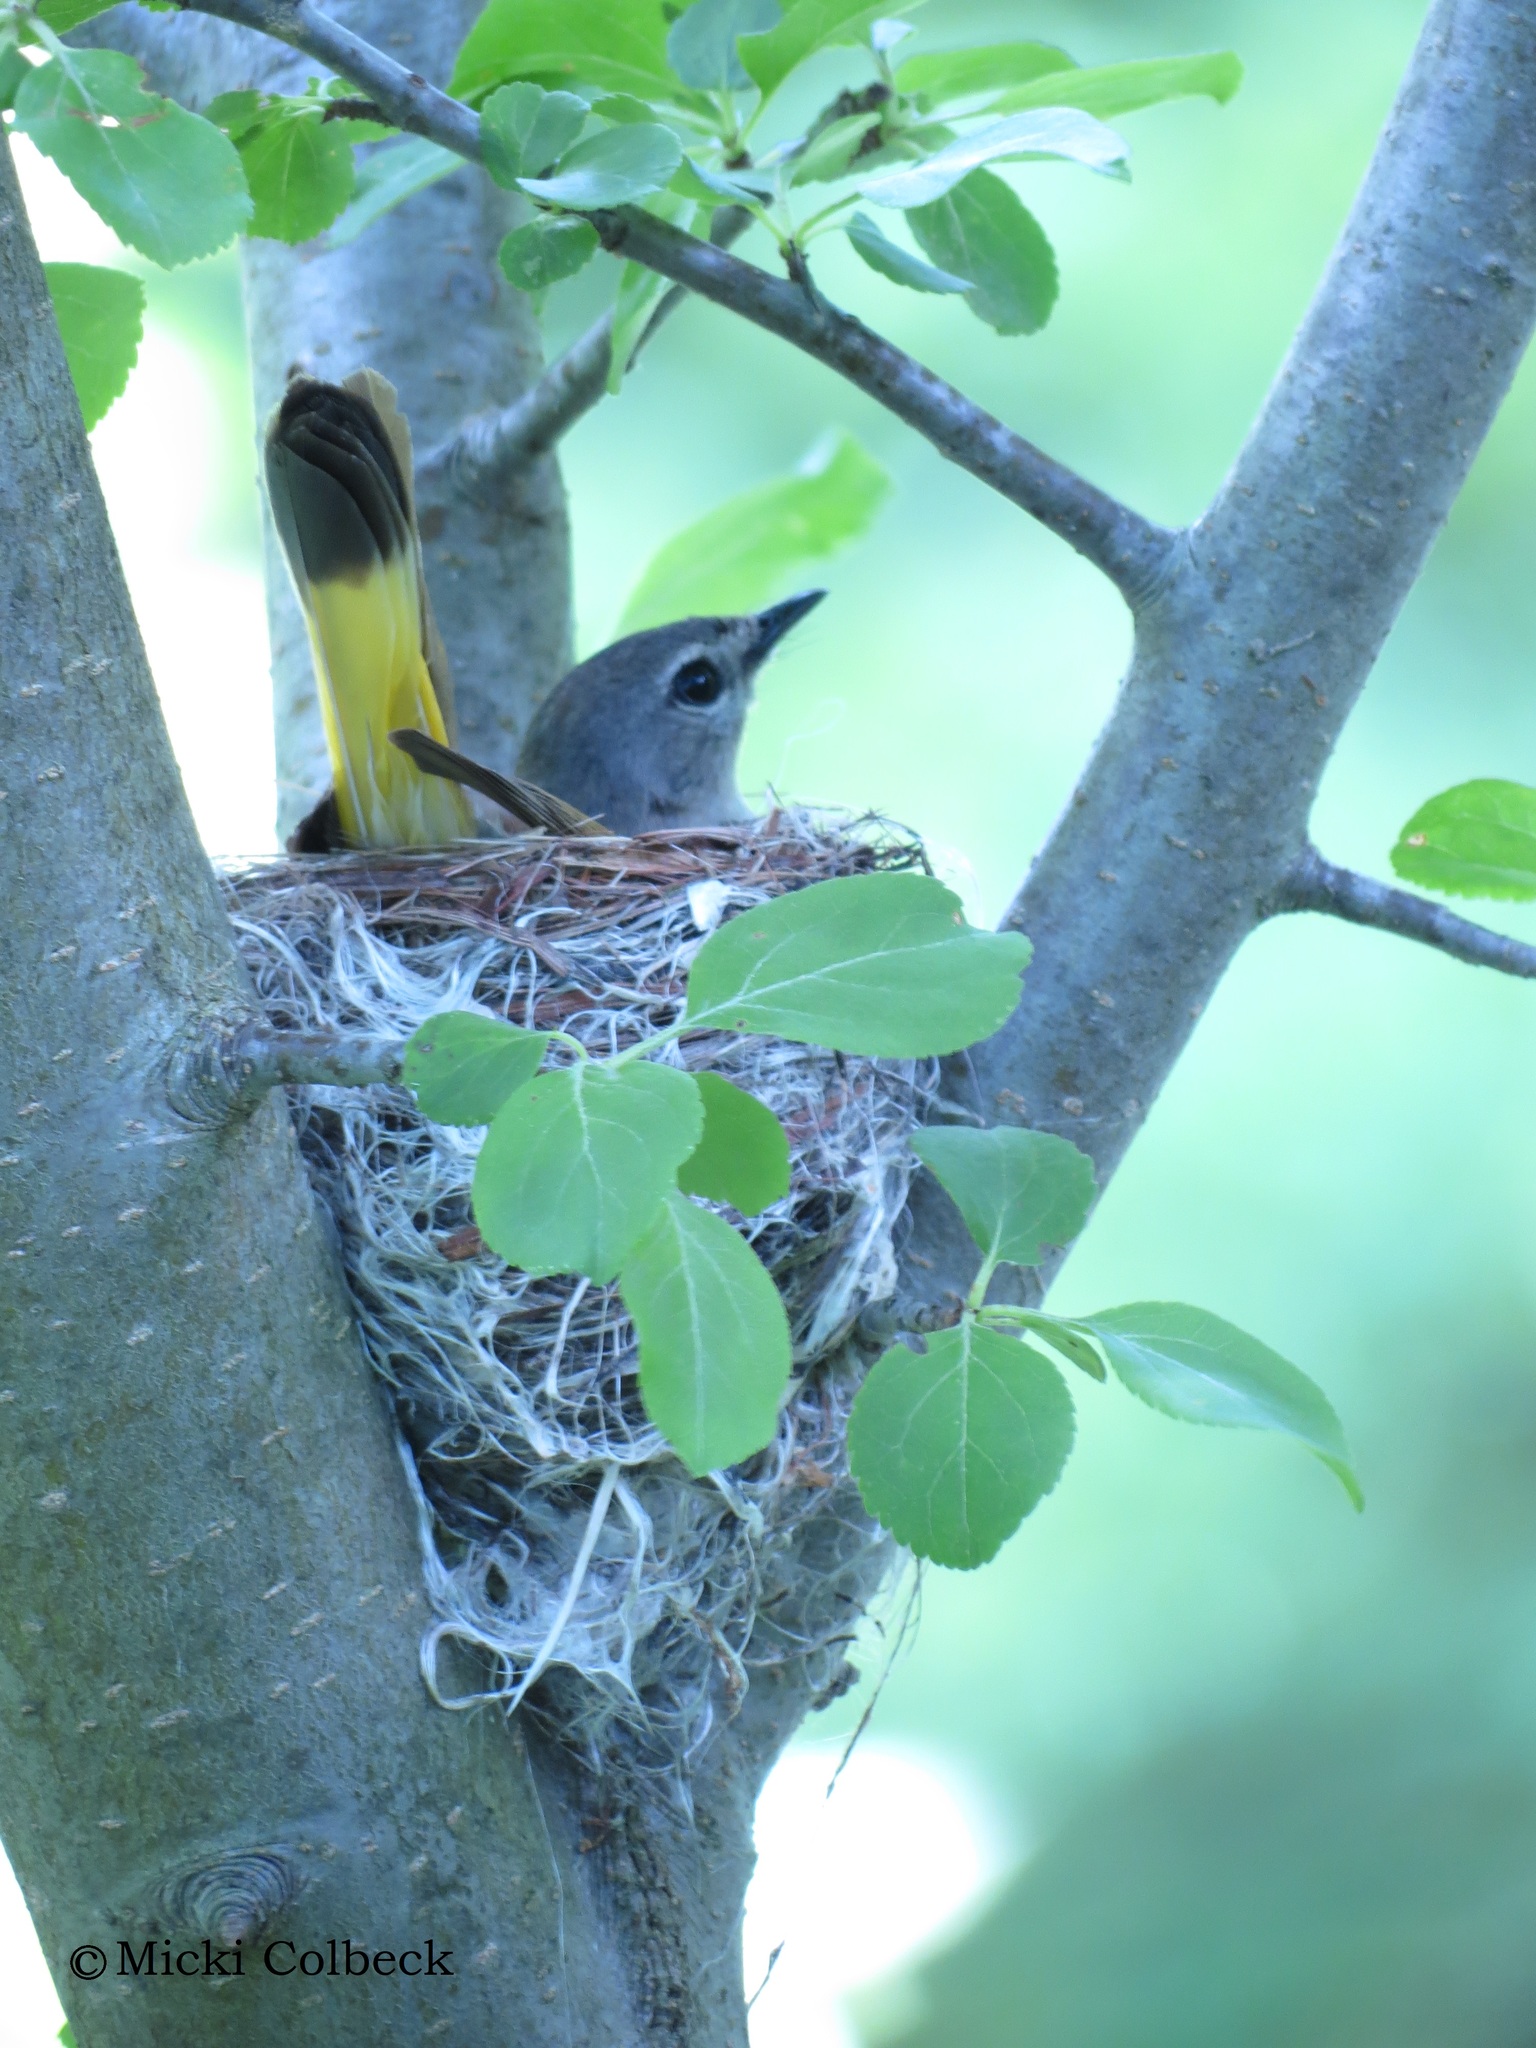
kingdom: Animalia
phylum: Chordata
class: Aves
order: Passeriformes
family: Parulidae
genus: Setophaga
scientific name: Setophaga ruticilla
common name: American redstart
